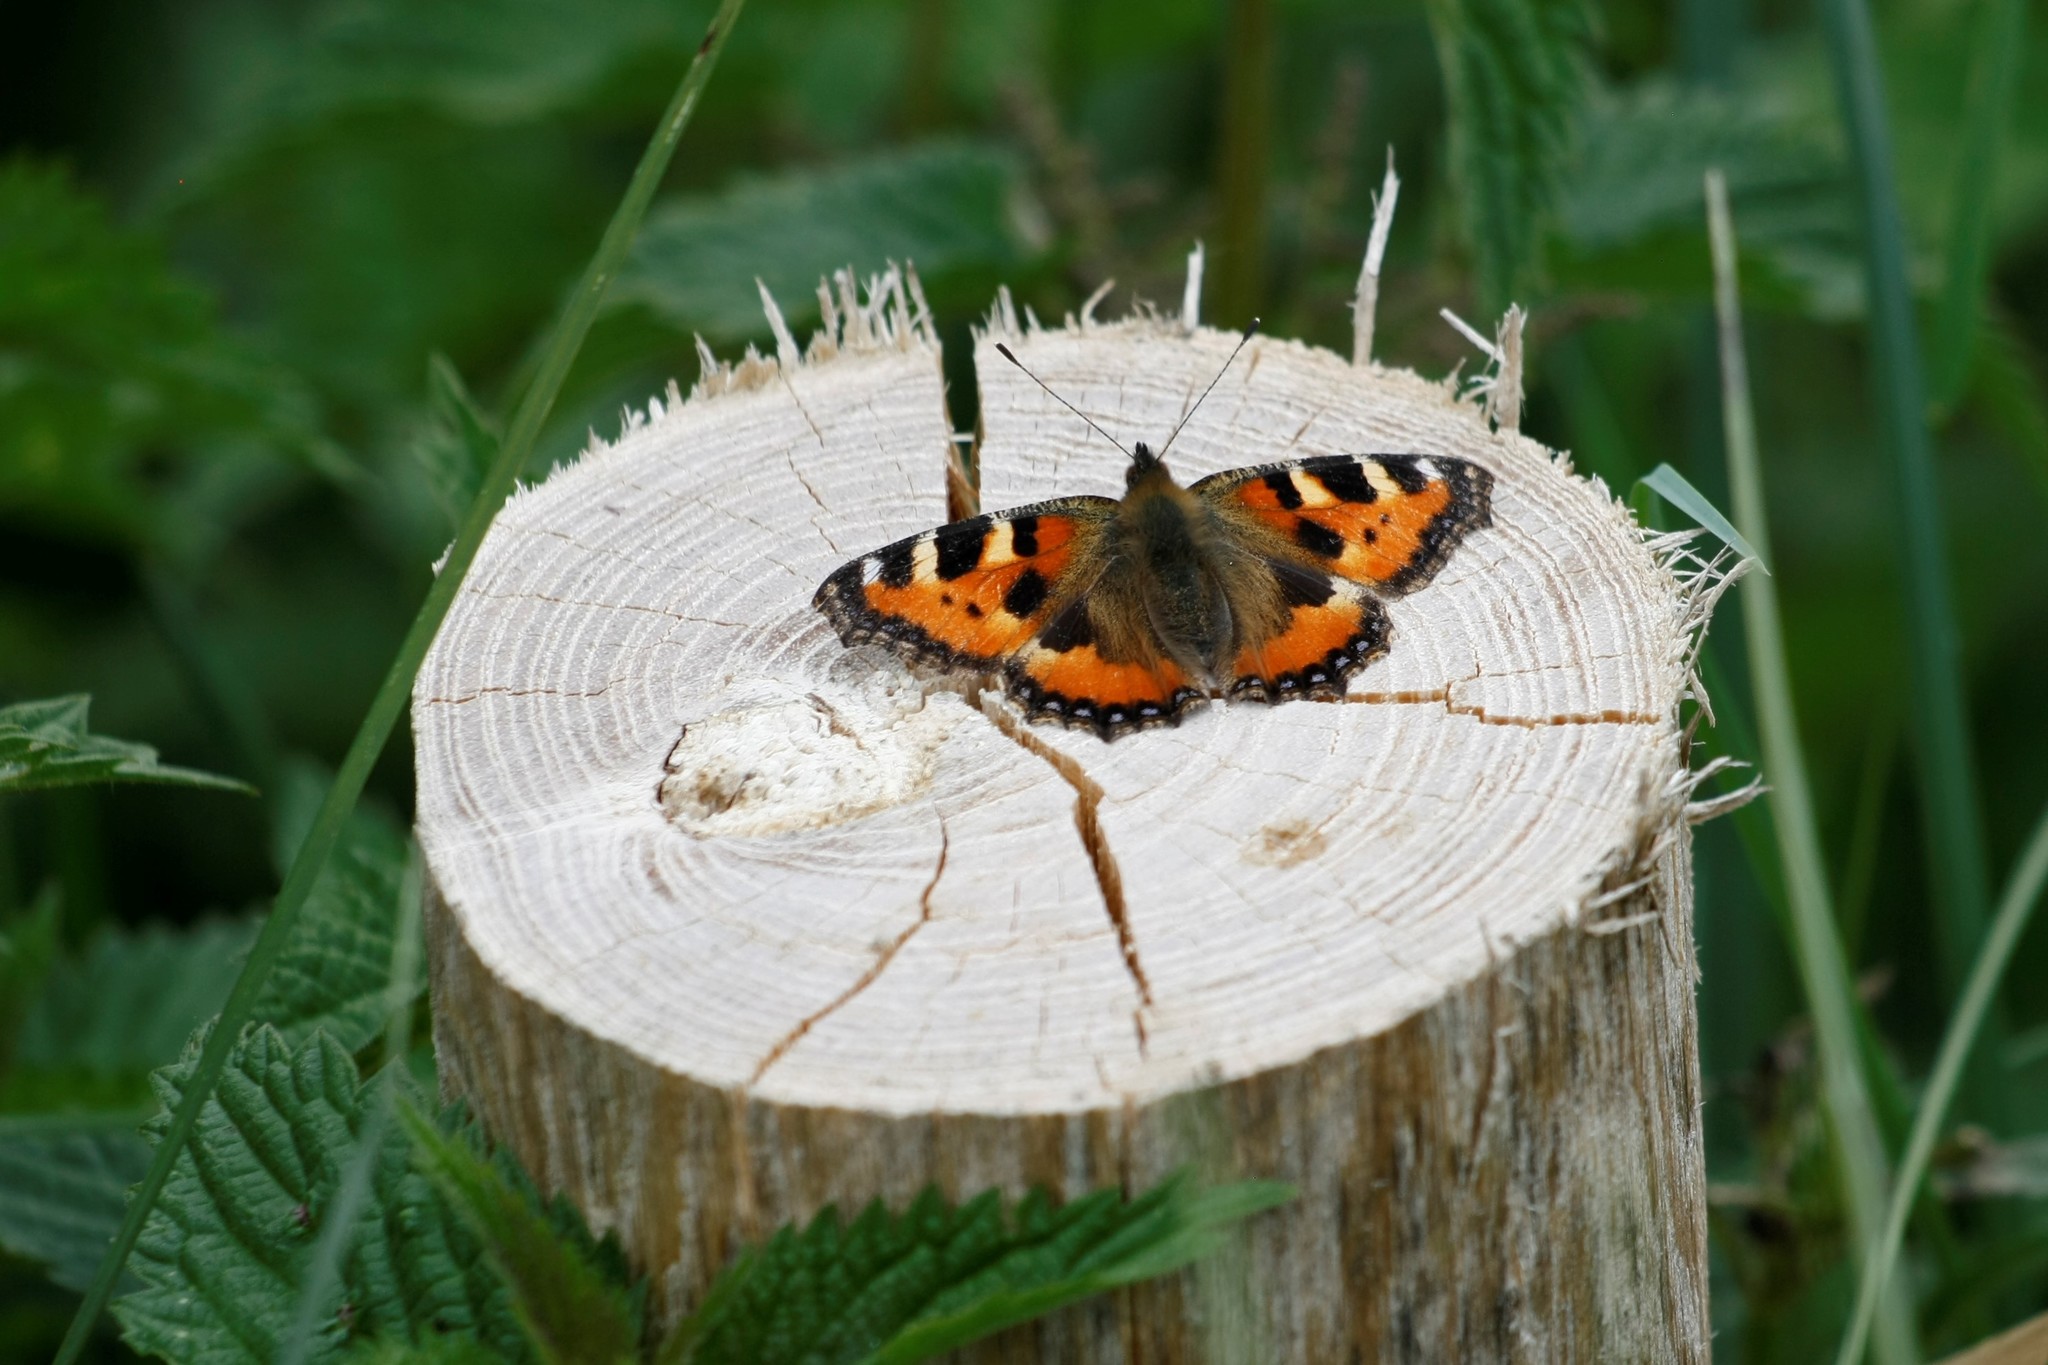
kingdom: Animalia
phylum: Arthropoda
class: Insecta
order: Lepidoptera
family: Nymphalidae
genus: Aglais
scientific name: Aglais urticae
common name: Small tortoiseshell
